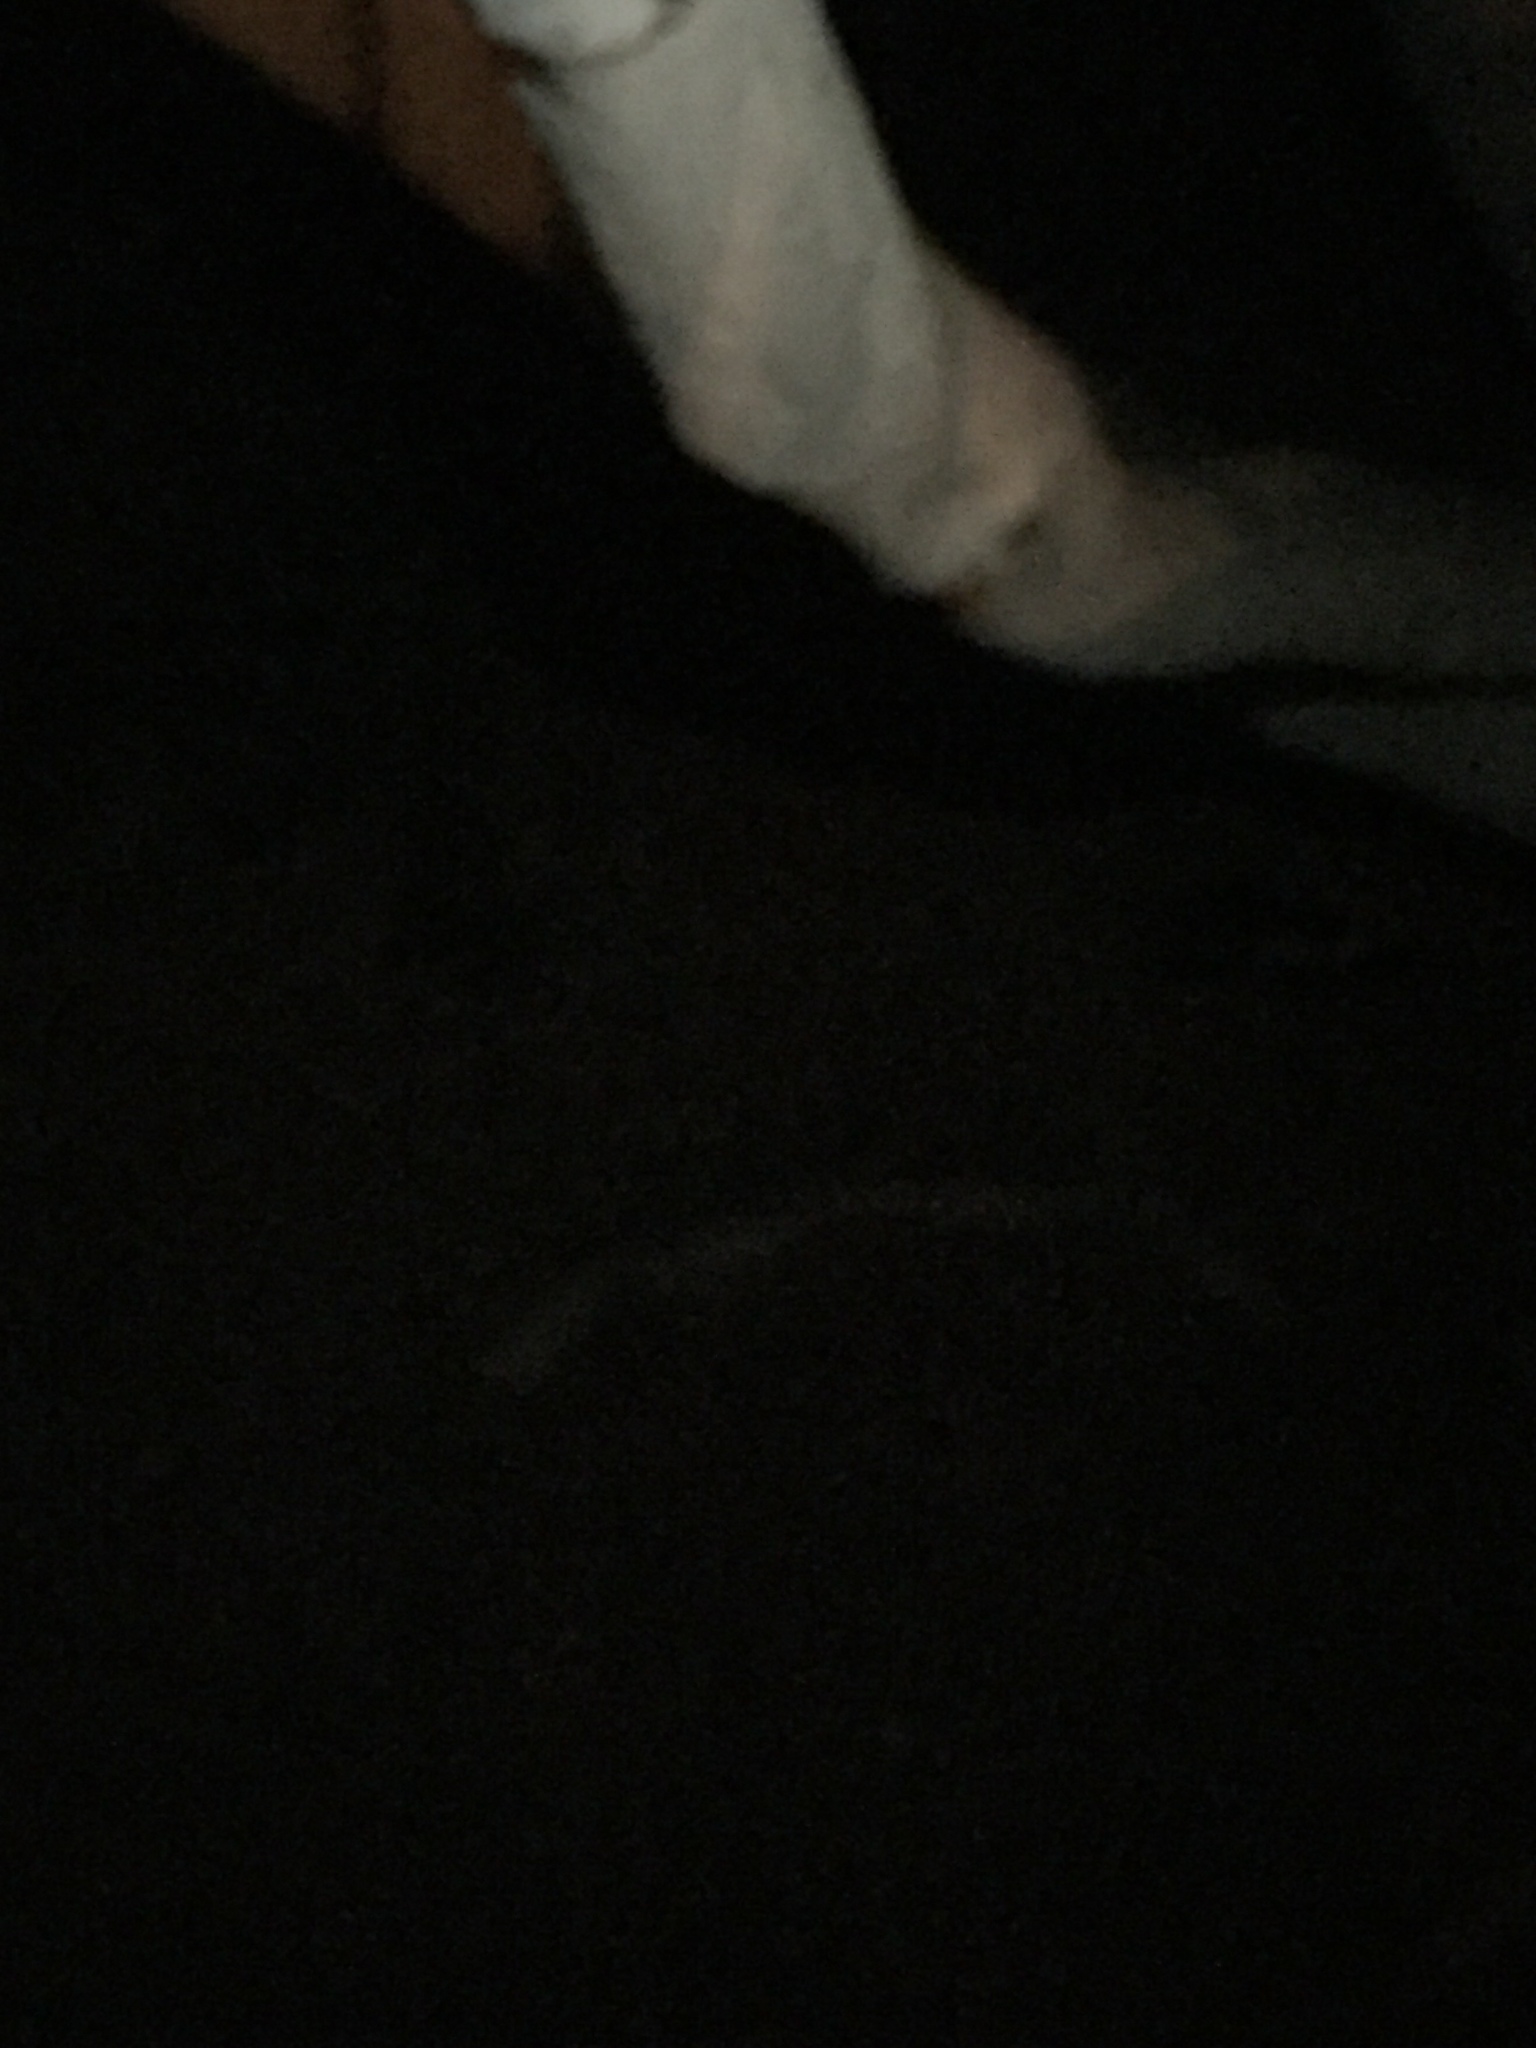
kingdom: Animalia
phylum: Chordata
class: Mammalia
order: Carnivora
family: Mephitidae
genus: Mephitis
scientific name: Mephitis mephitis
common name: Striped skunk
